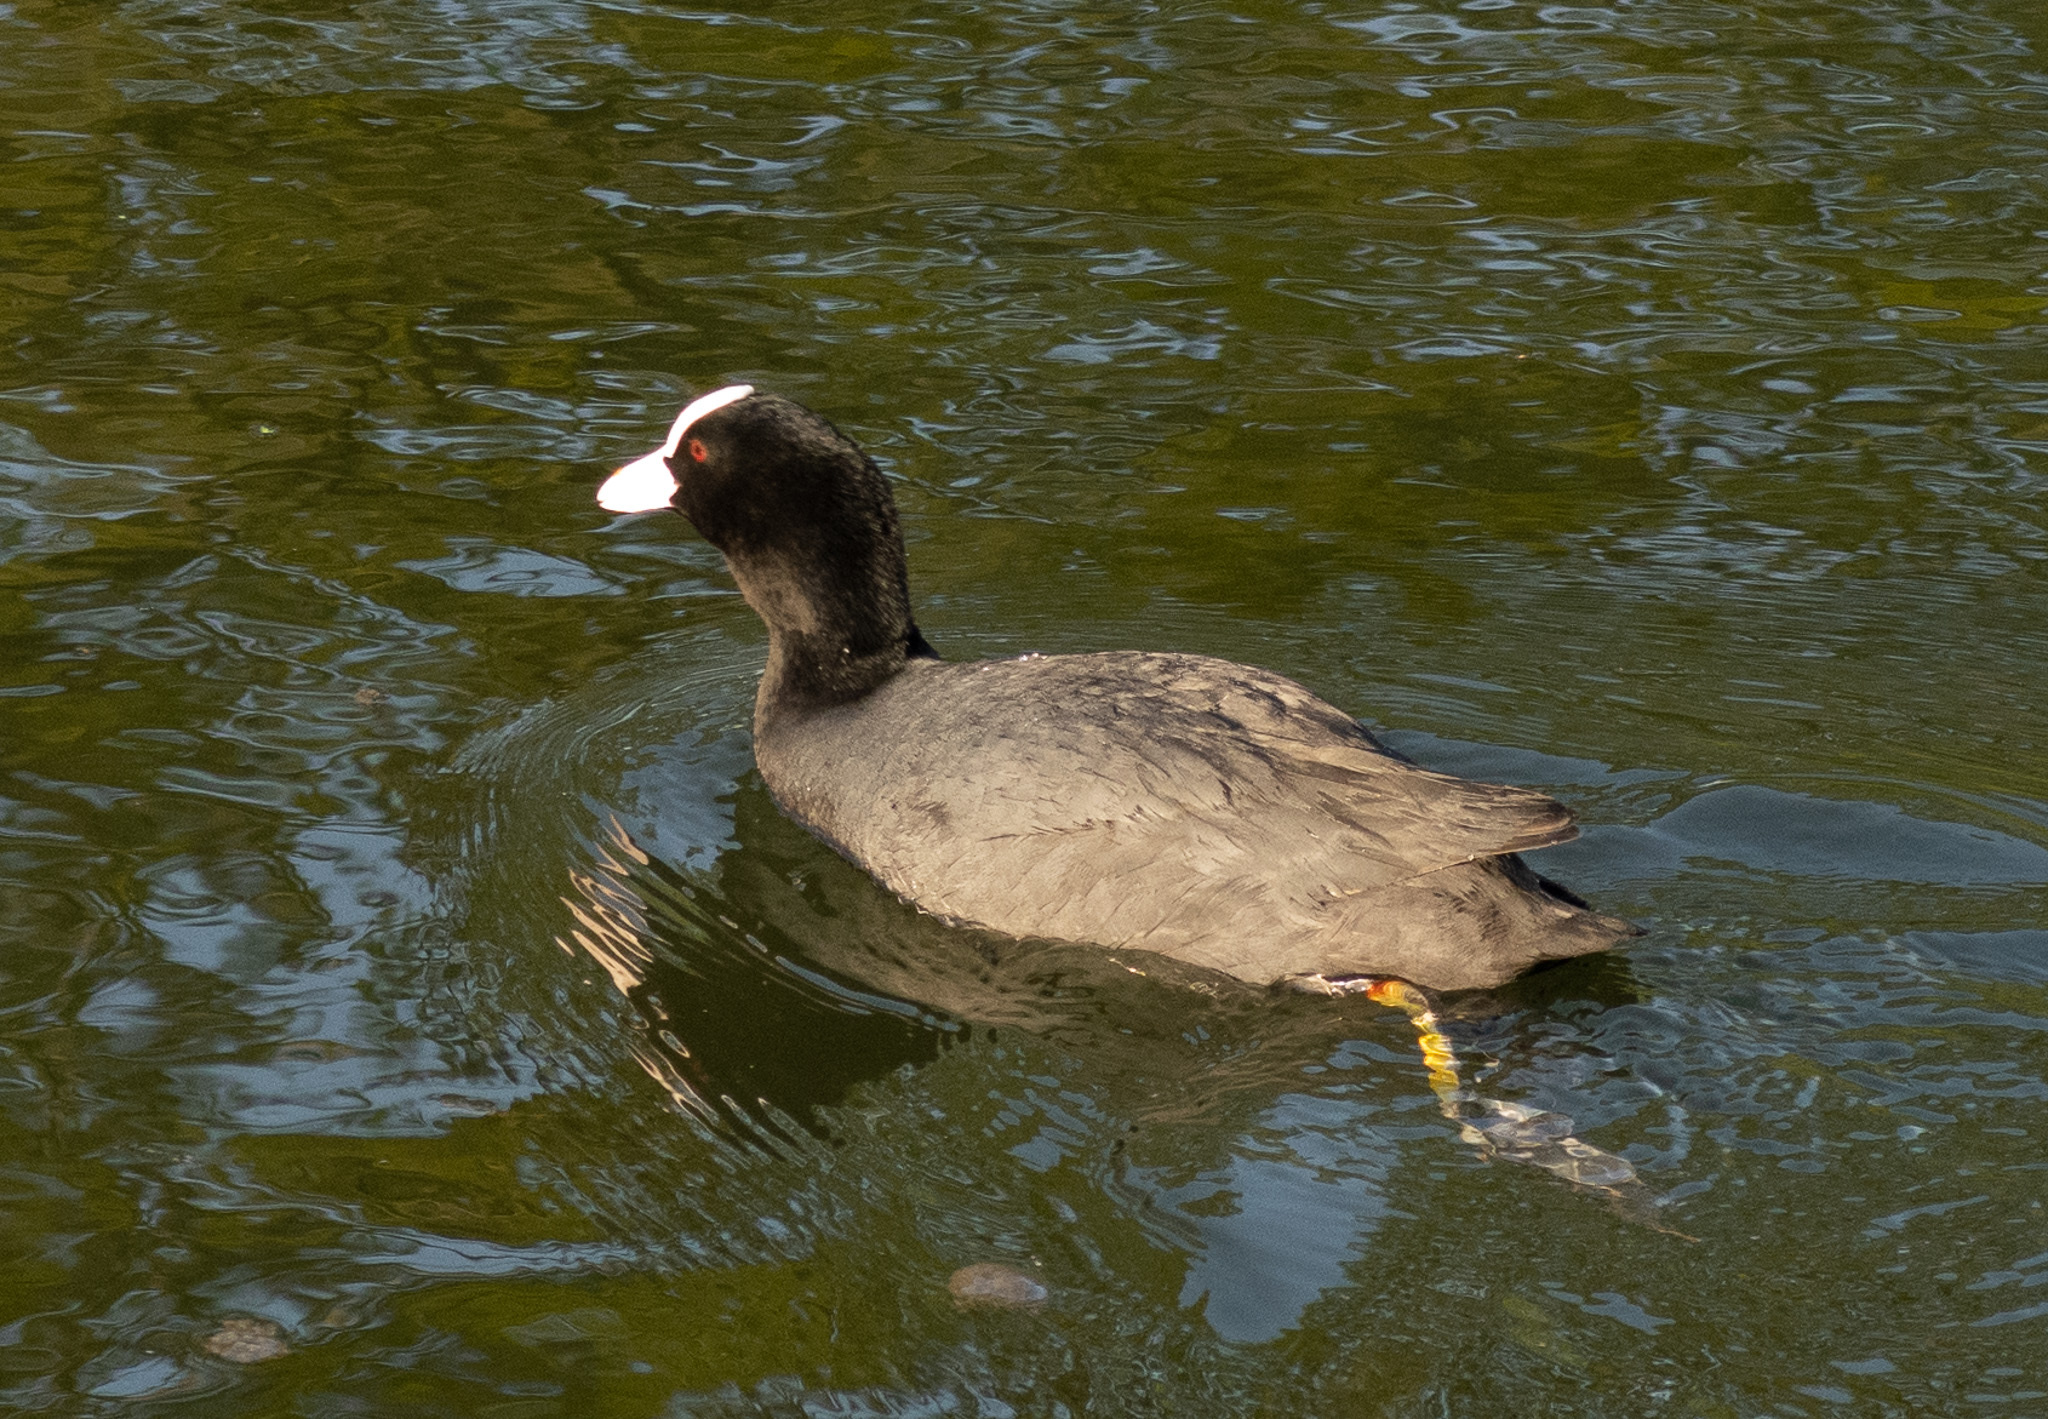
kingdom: Animalia
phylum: Chordata
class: Aves
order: Gruiformes
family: Rallidae
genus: Fulica
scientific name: Fulica atra
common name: Eurasian coot
